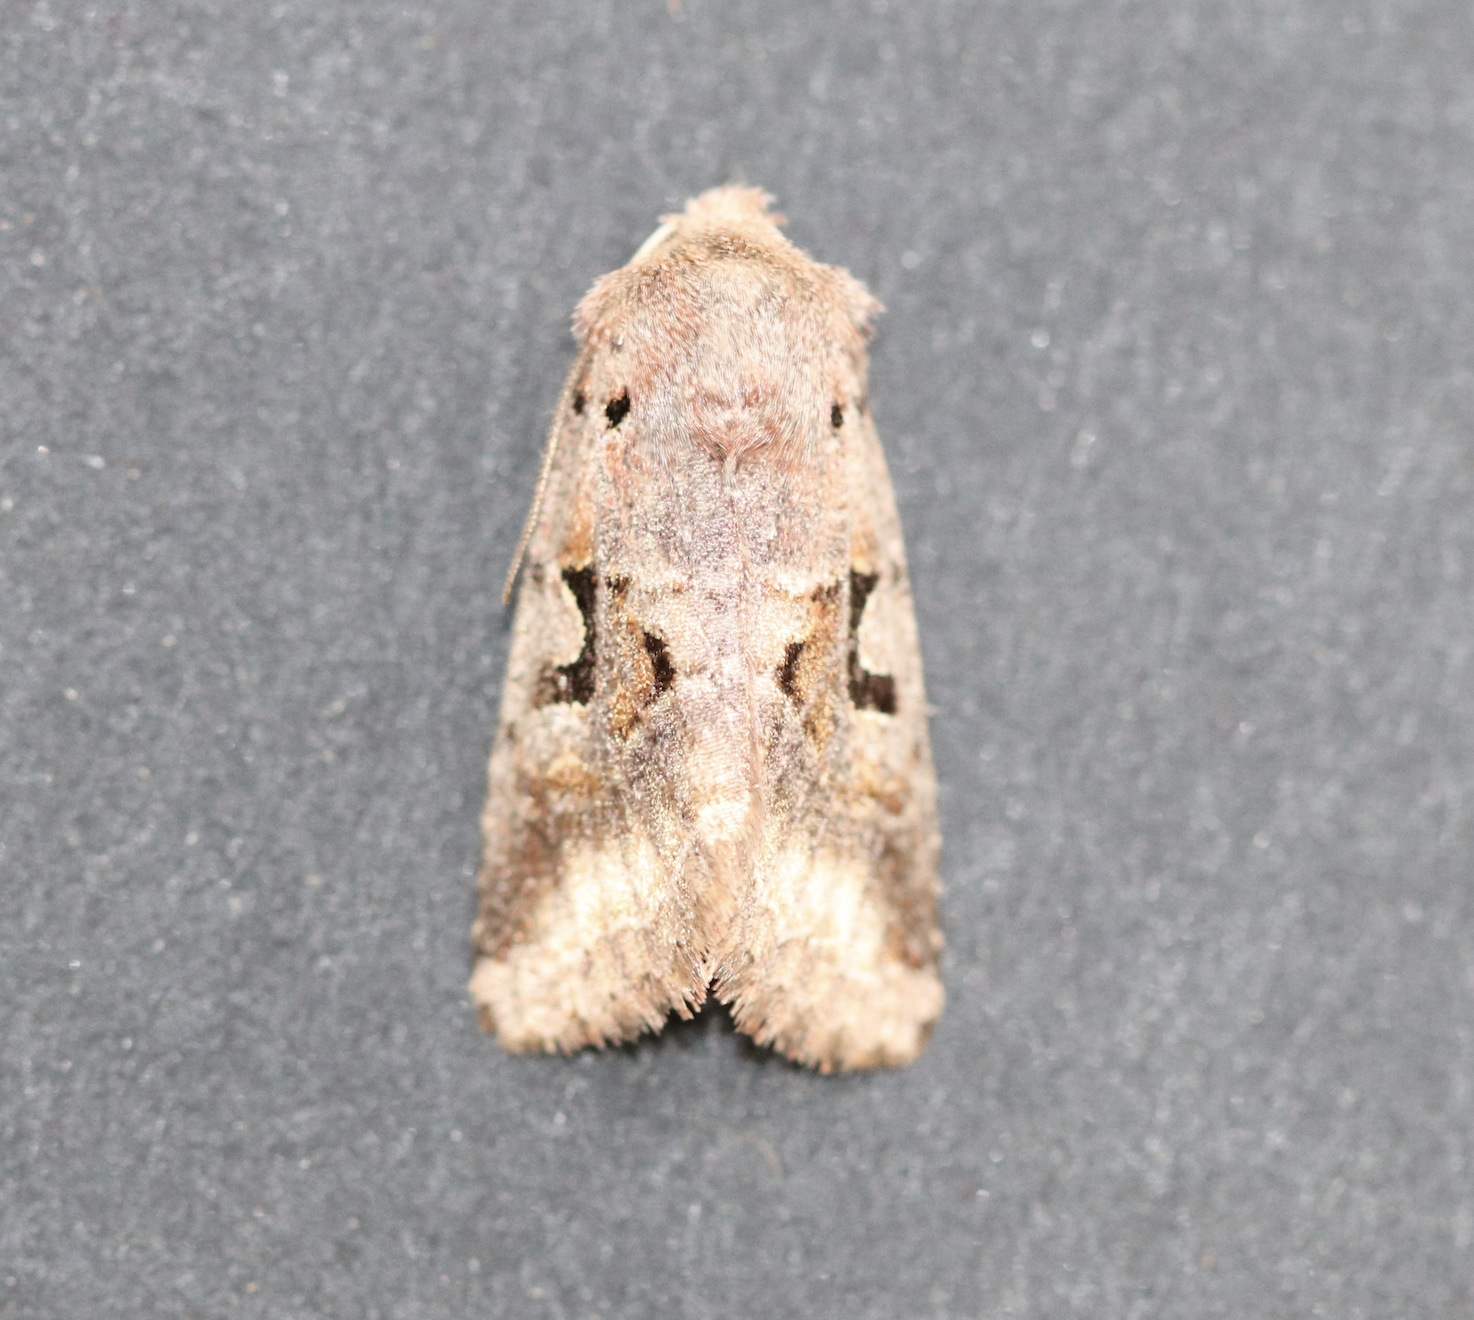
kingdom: Animalia
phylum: Arthropoda
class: Insecta
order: Lepidoptera
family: Noctuidae
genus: Orthosia
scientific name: Orthosia gothica
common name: Hebrew character
